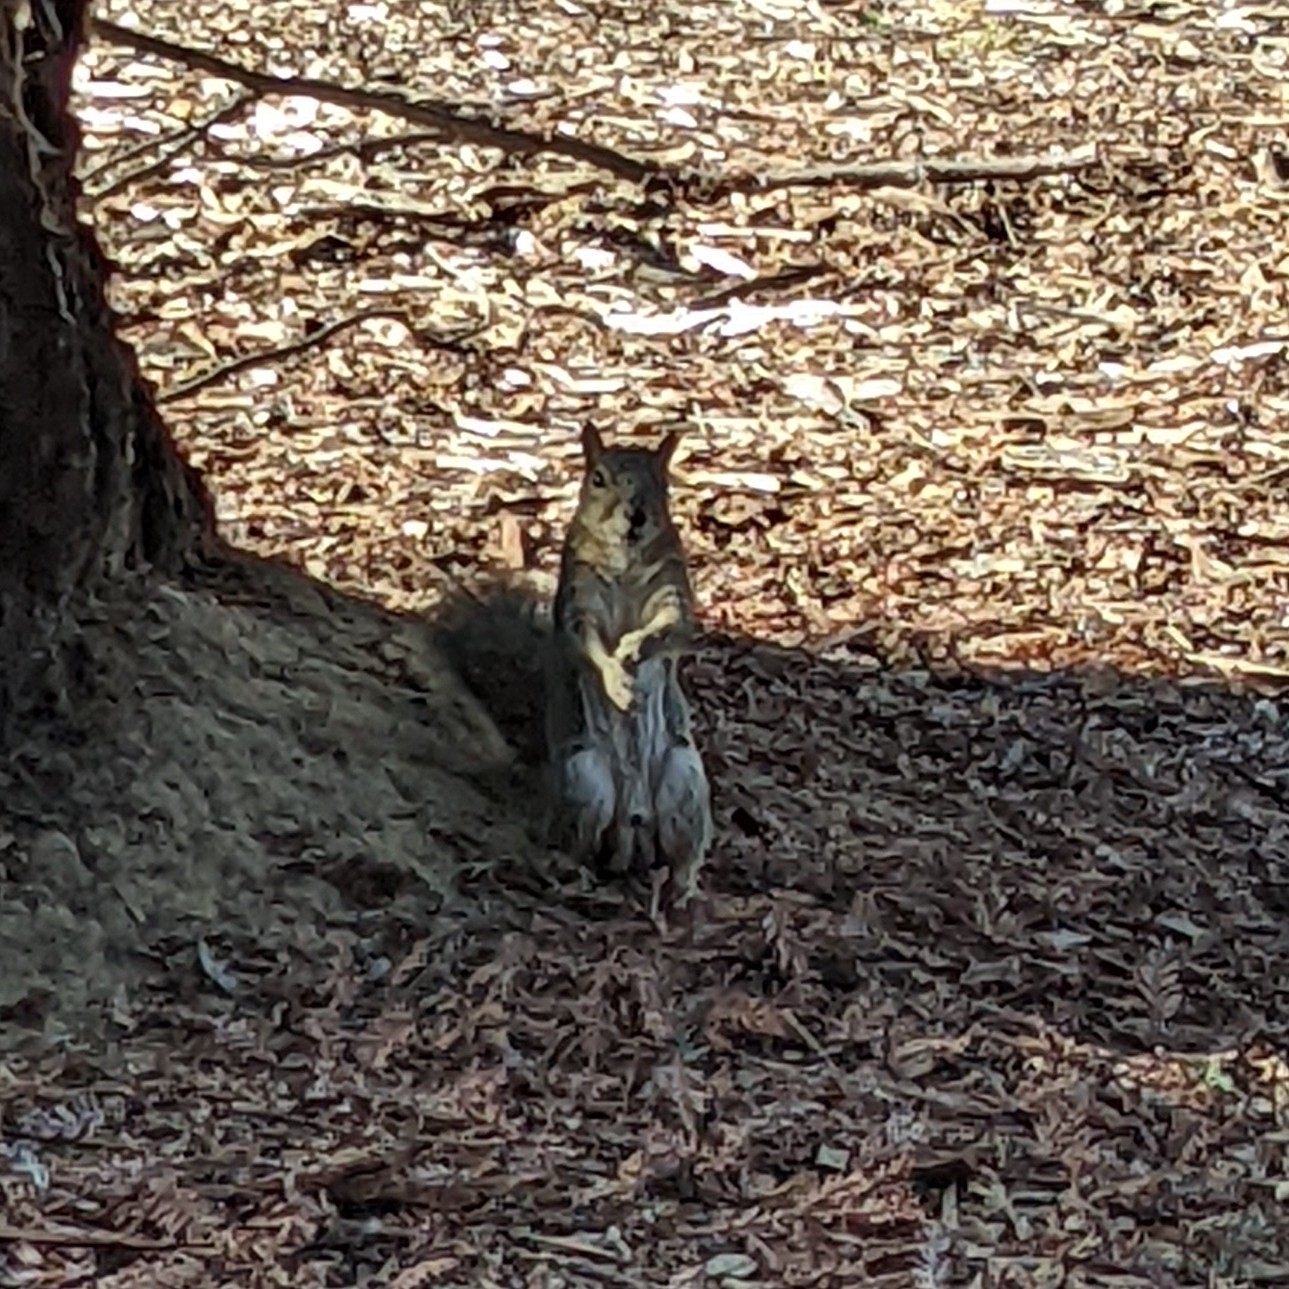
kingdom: Animalia
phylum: Chordata
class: Mammalia
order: Rodentia
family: Sciuridae
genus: Sciurus
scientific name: Sciurus niger
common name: Fox squirrel
